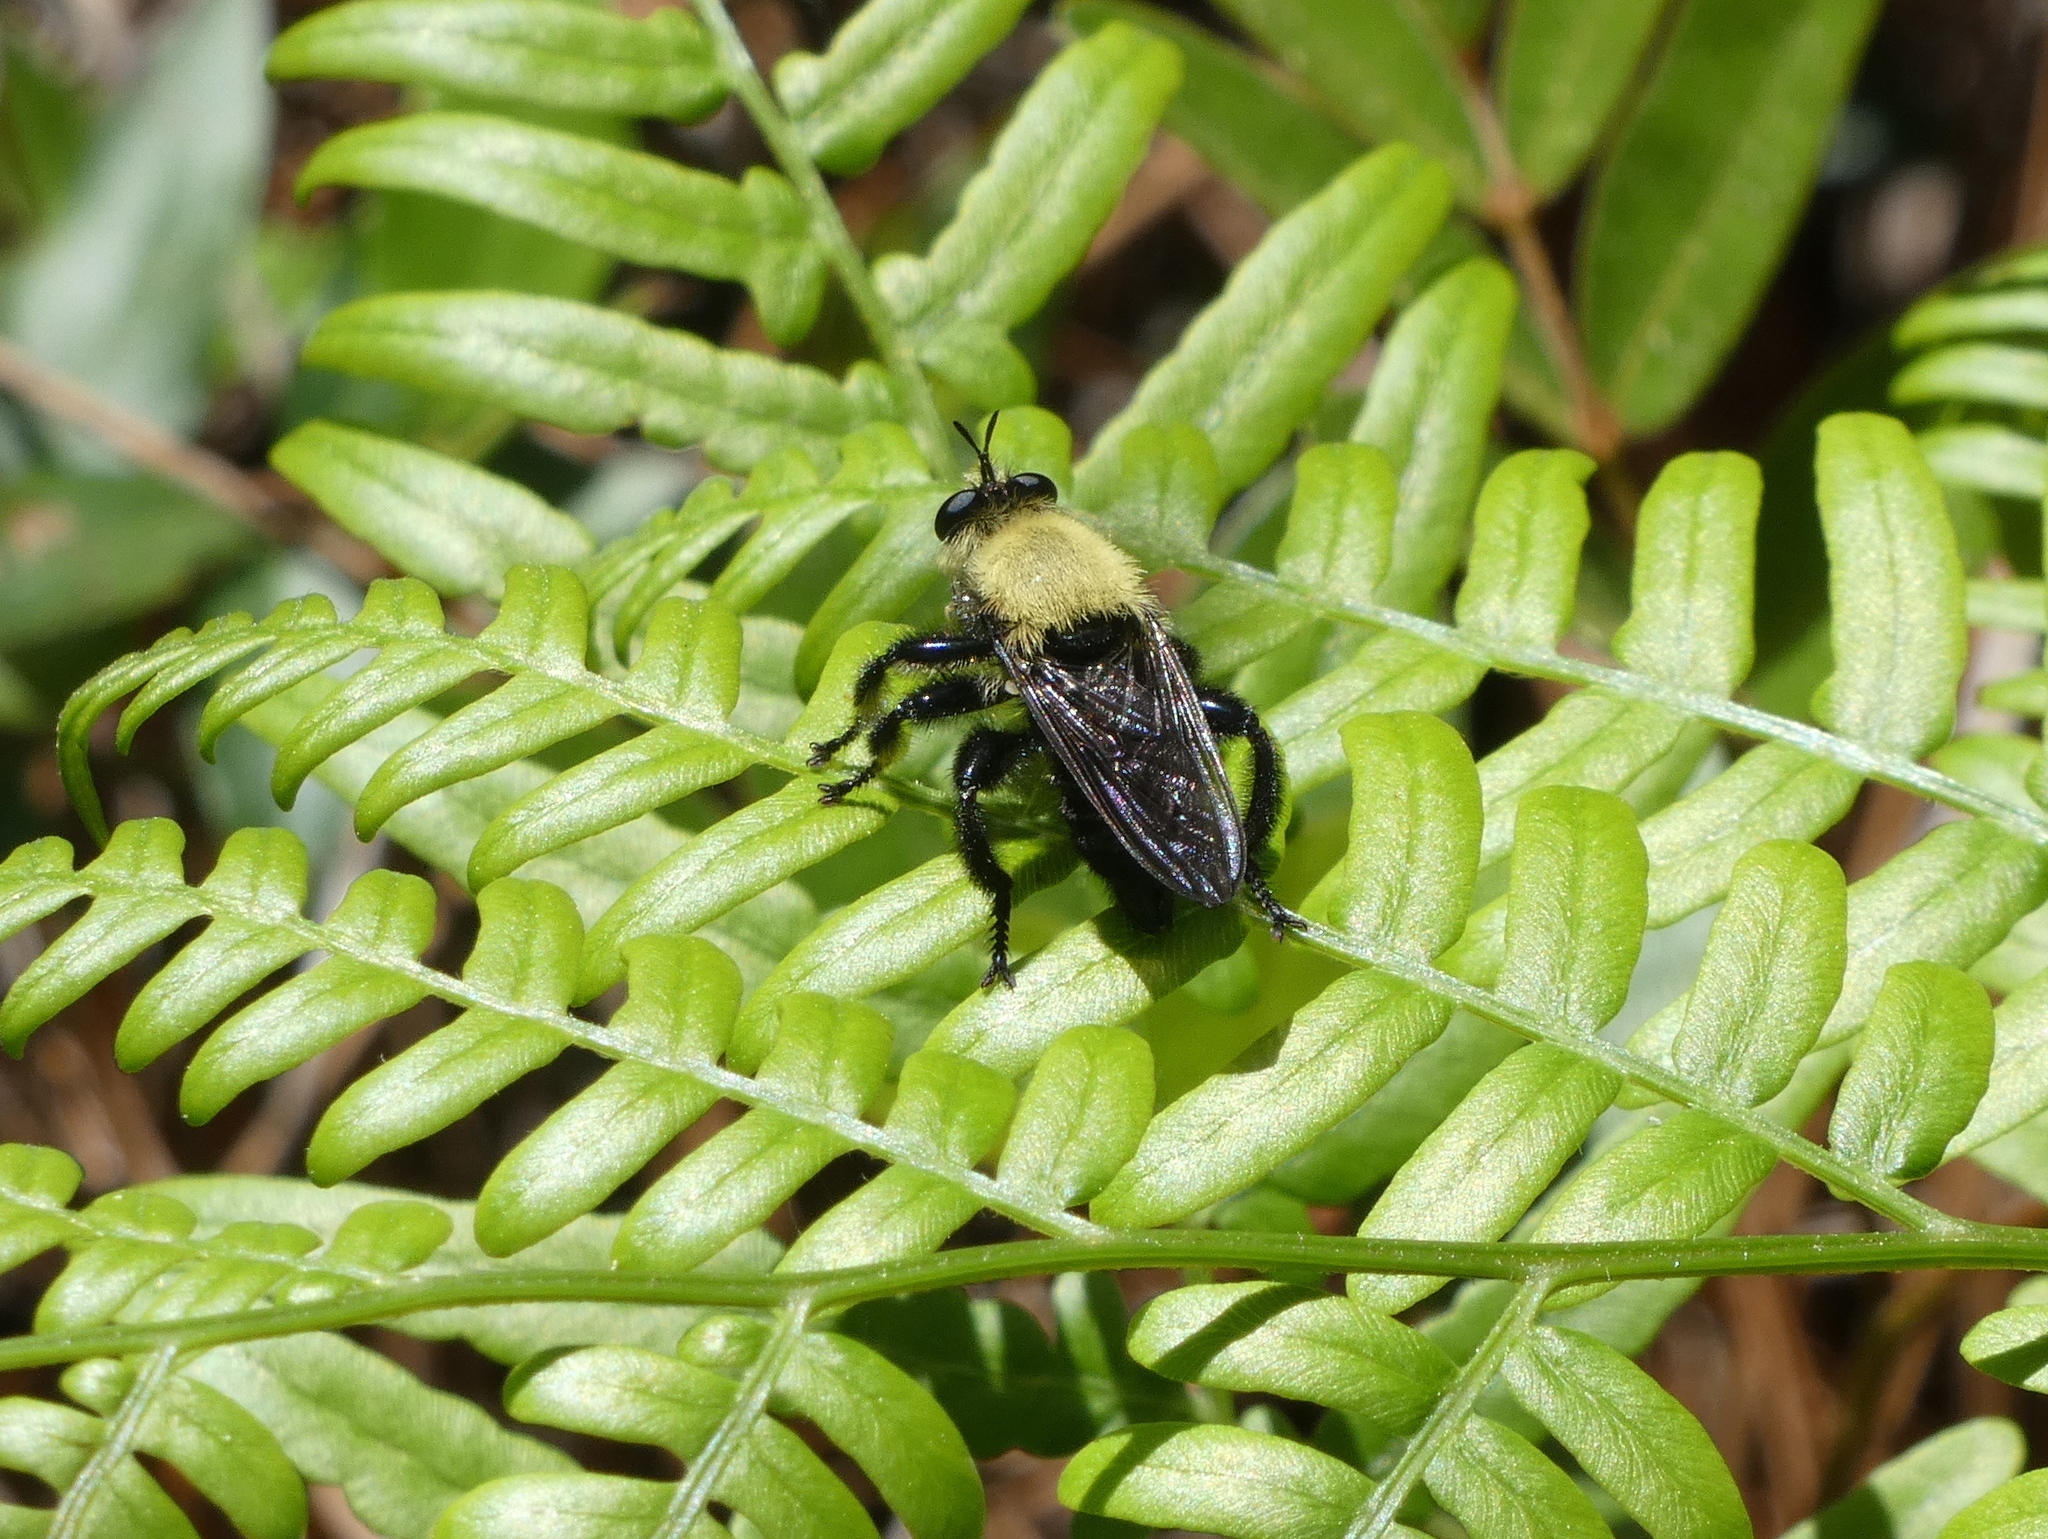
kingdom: Animalia
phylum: Arthropoda
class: Insecta
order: Diptera
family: Asilidae
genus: Laphria
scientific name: Laphria virginica
